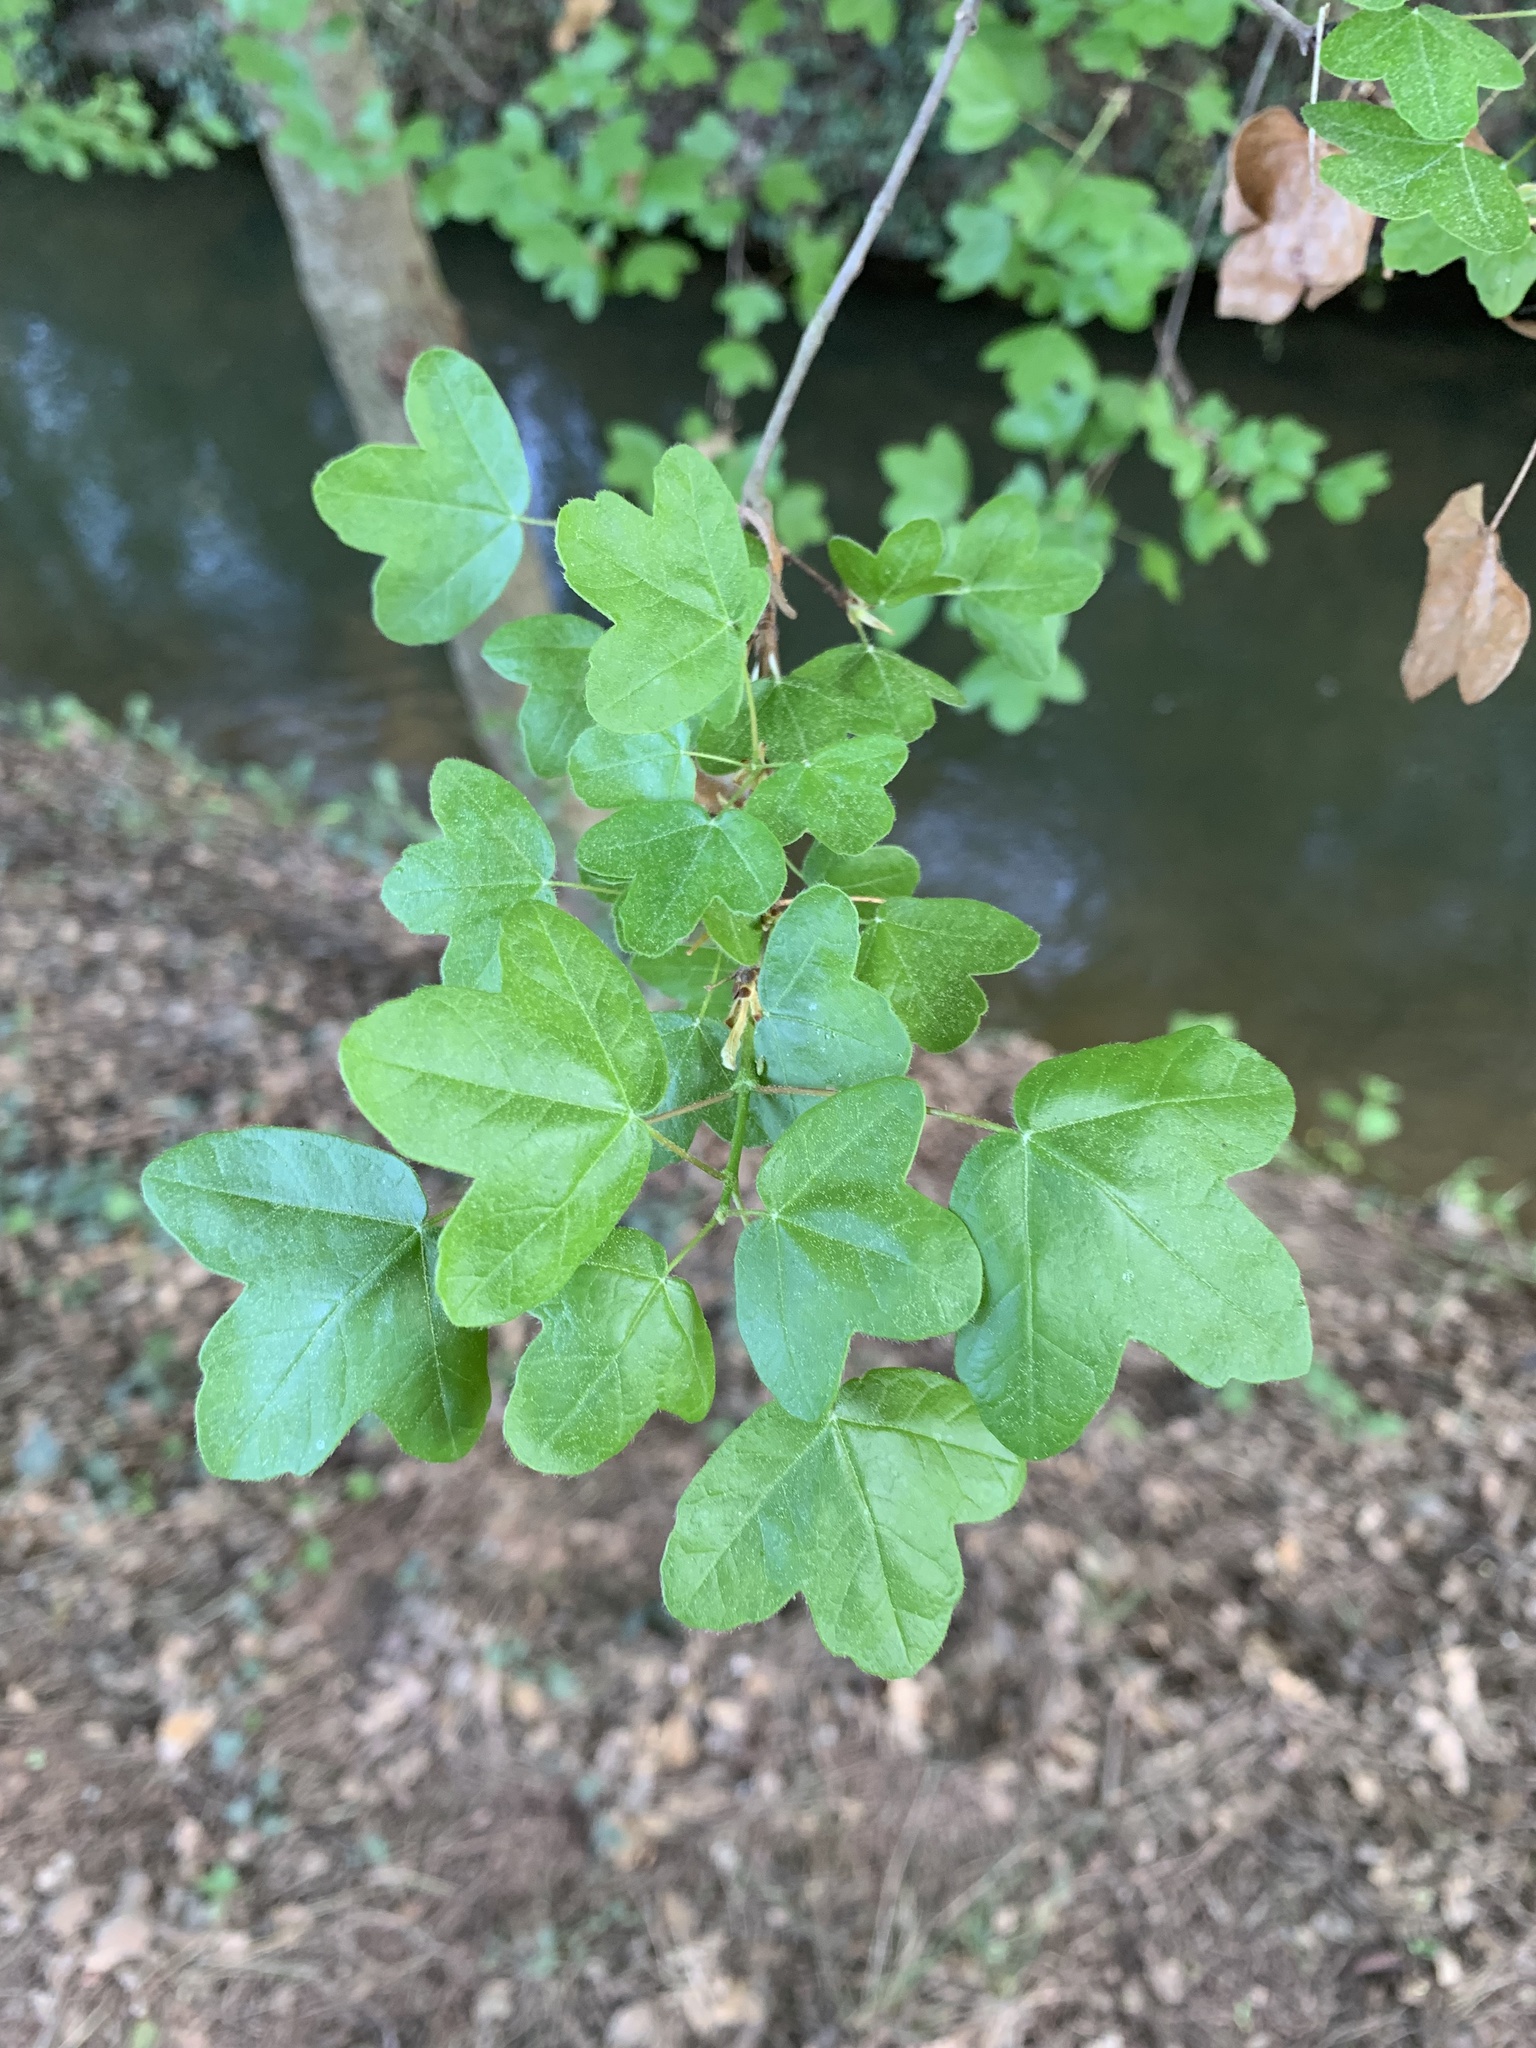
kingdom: Plantae
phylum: Tracheophyta
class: Magnoliopsida
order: Sapindales
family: Sapindaceae
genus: Acer
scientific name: Acer monspessulanum
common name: Montpellier maple
